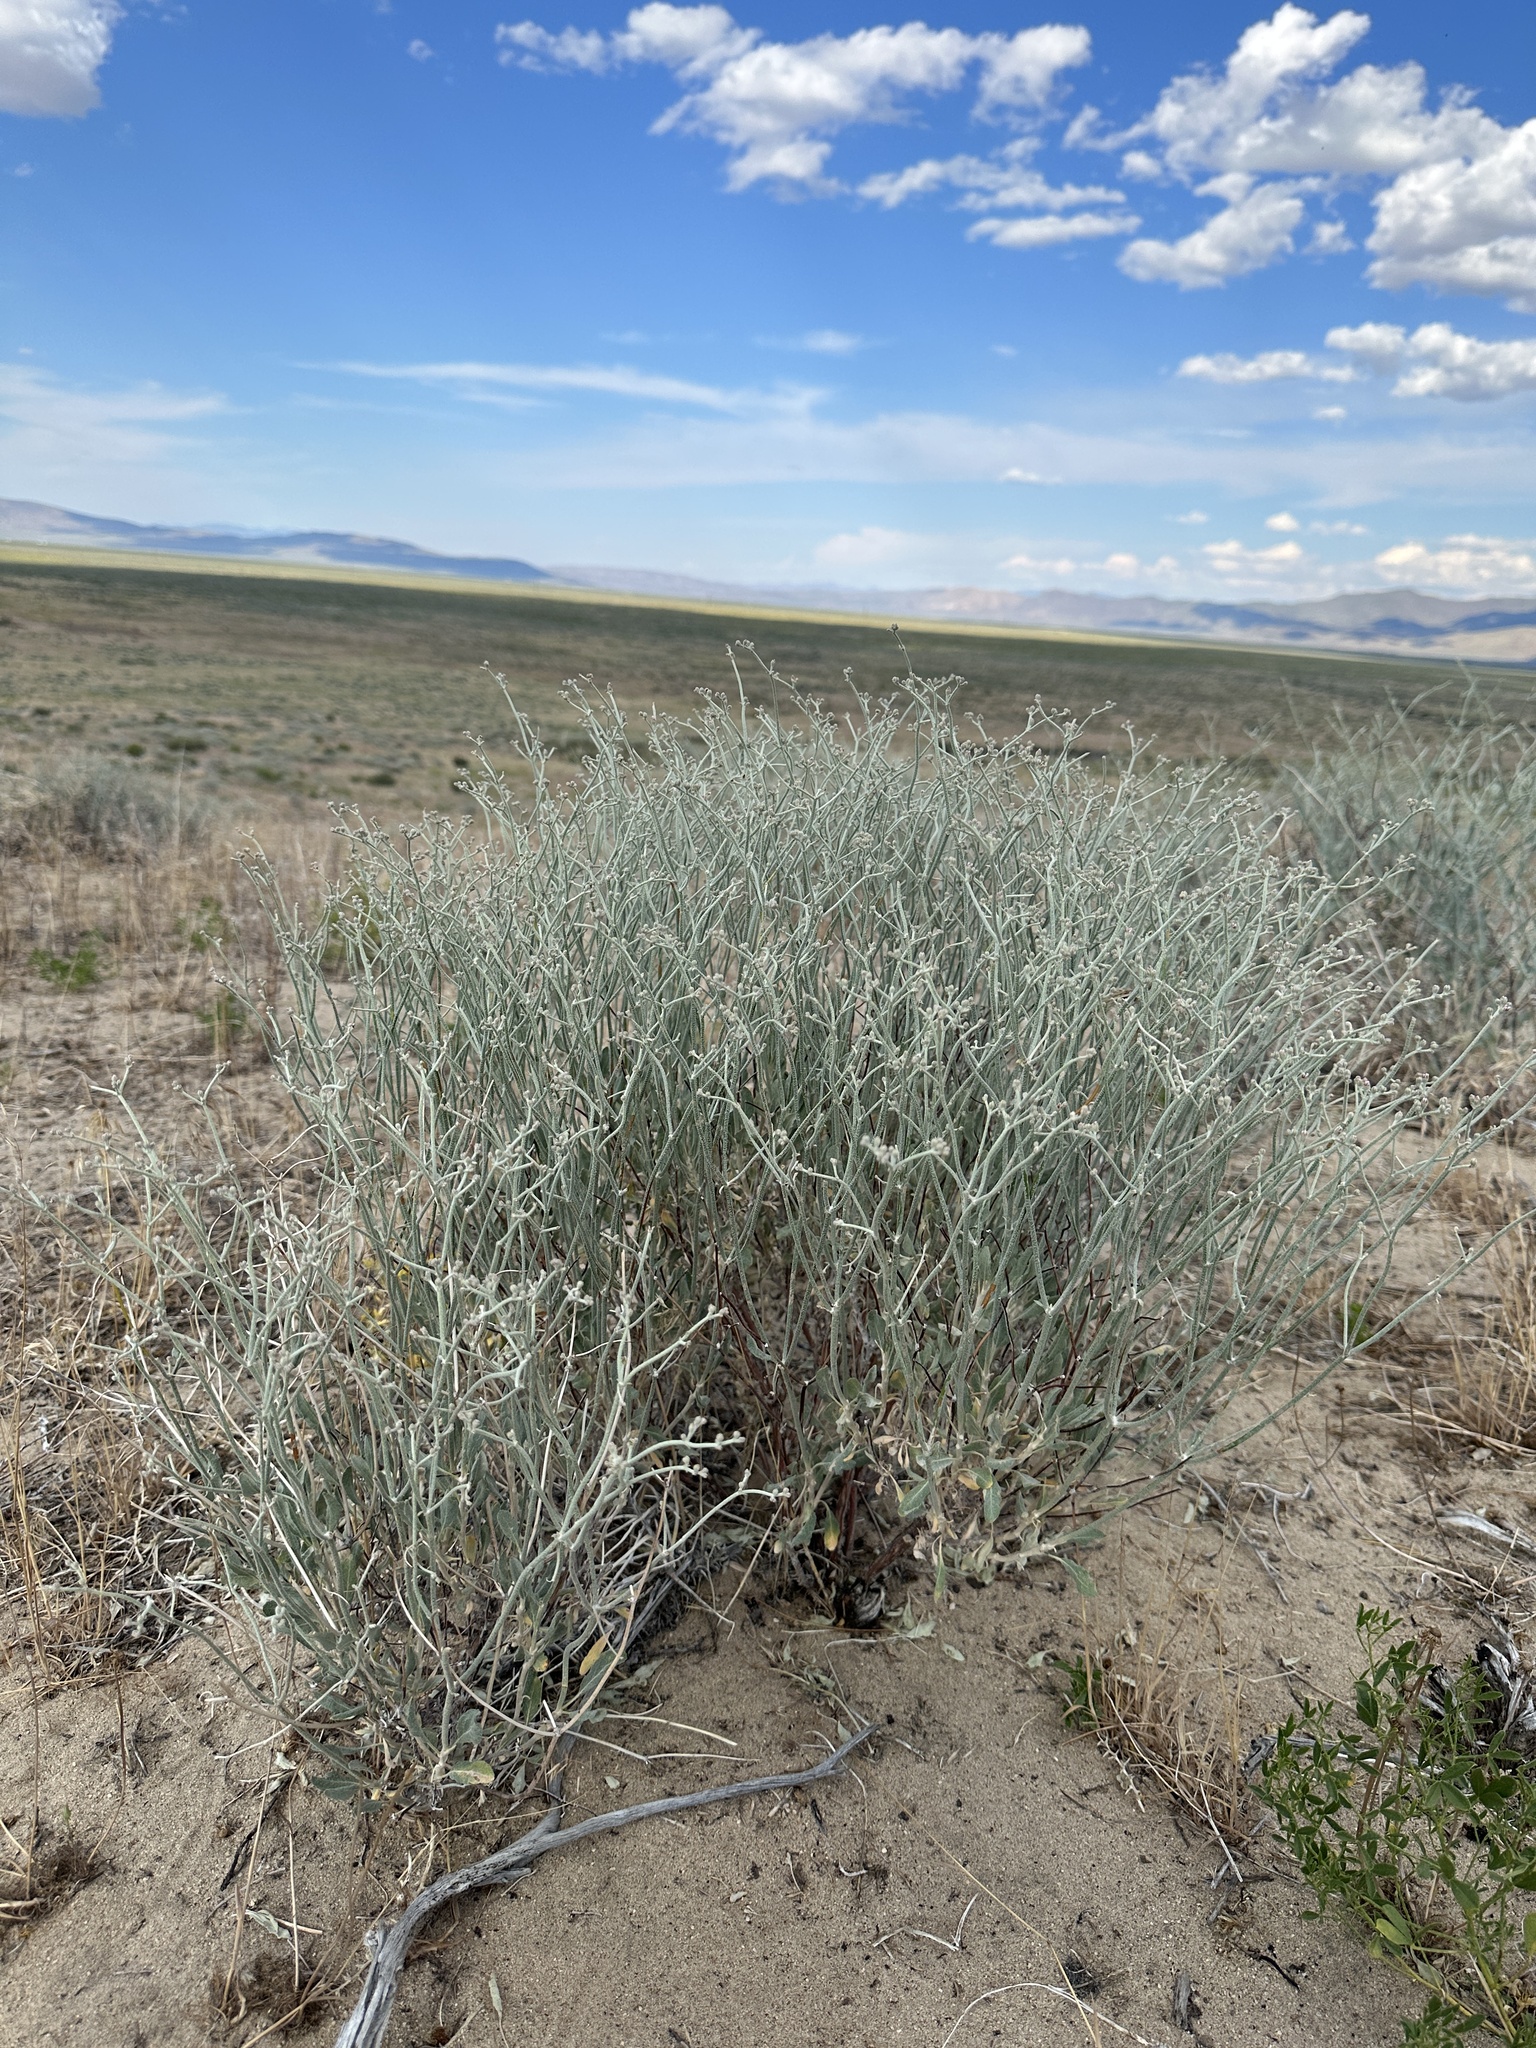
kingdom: Plantae
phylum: Tracheophyta
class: Magnoliopsida
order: Caryophyllales
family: Polygonaceae
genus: Eriogonum
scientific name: Eriogonum nummulare
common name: Kearney wild buckwheat
